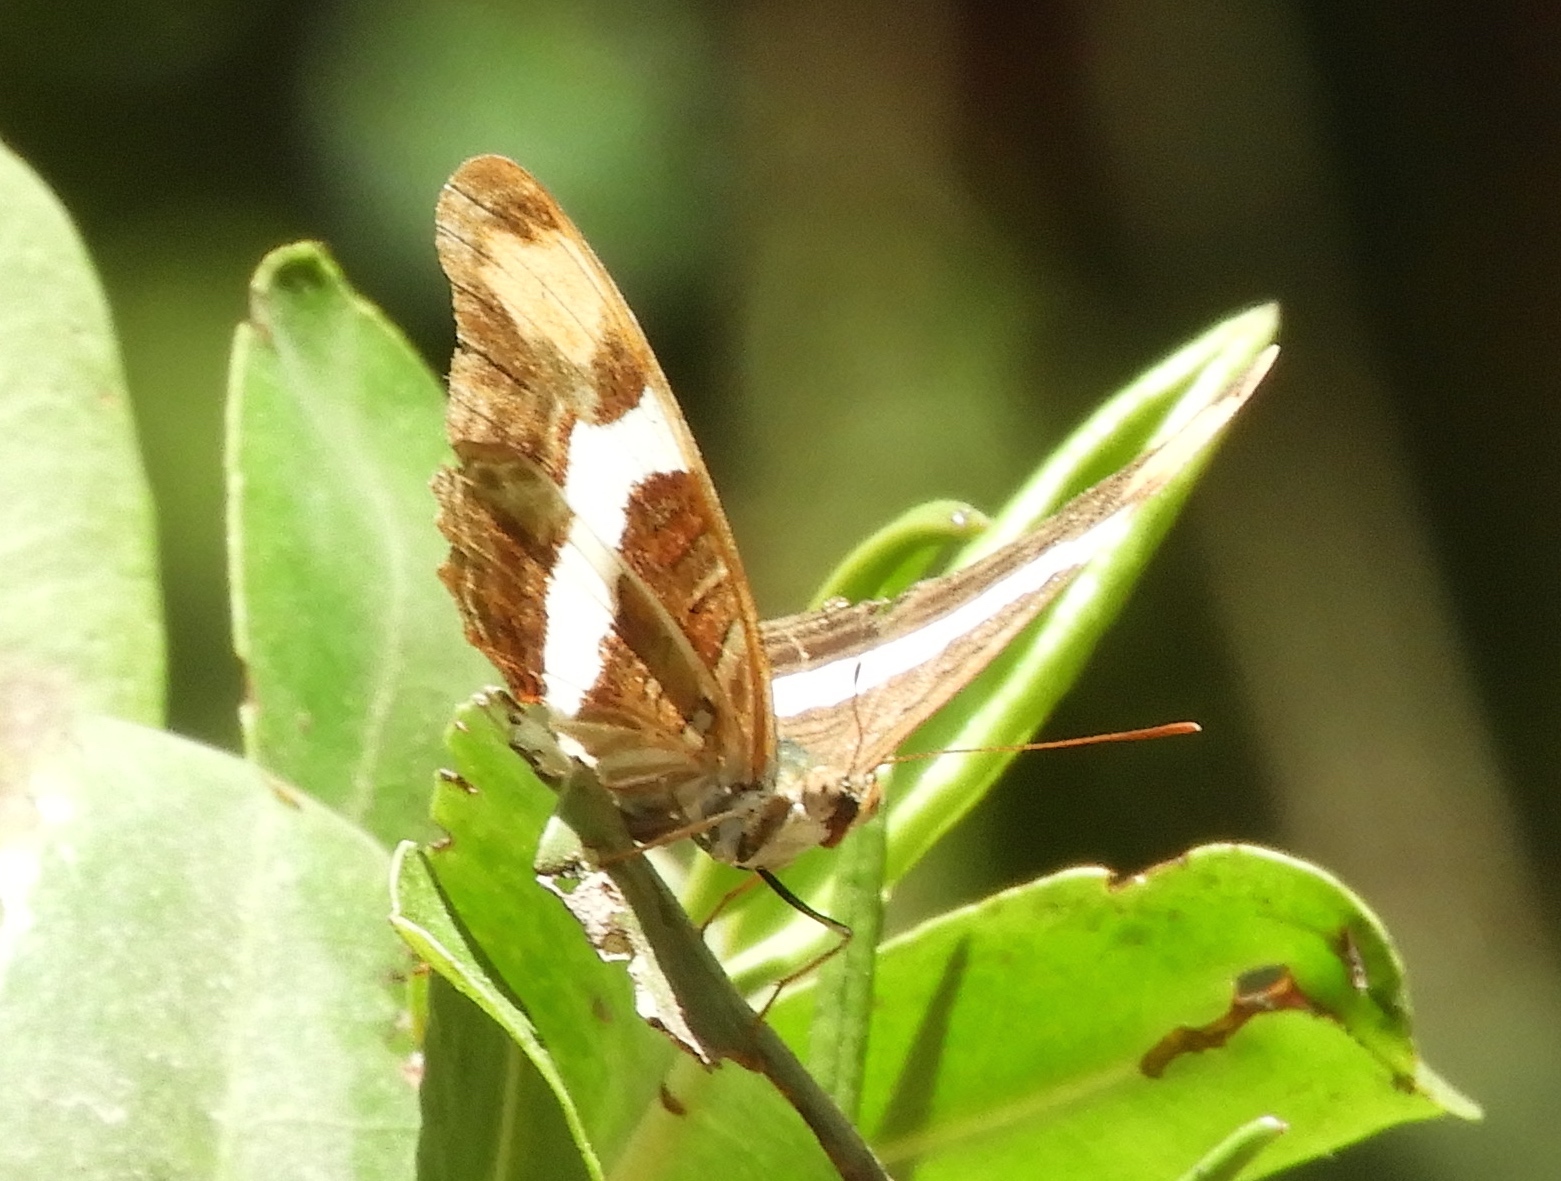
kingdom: Animalia
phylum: Arthropoda
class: Insecta
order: Lepidoptera
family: Nymphalidae
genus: Limenitis
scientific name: Limenitis fessonia
